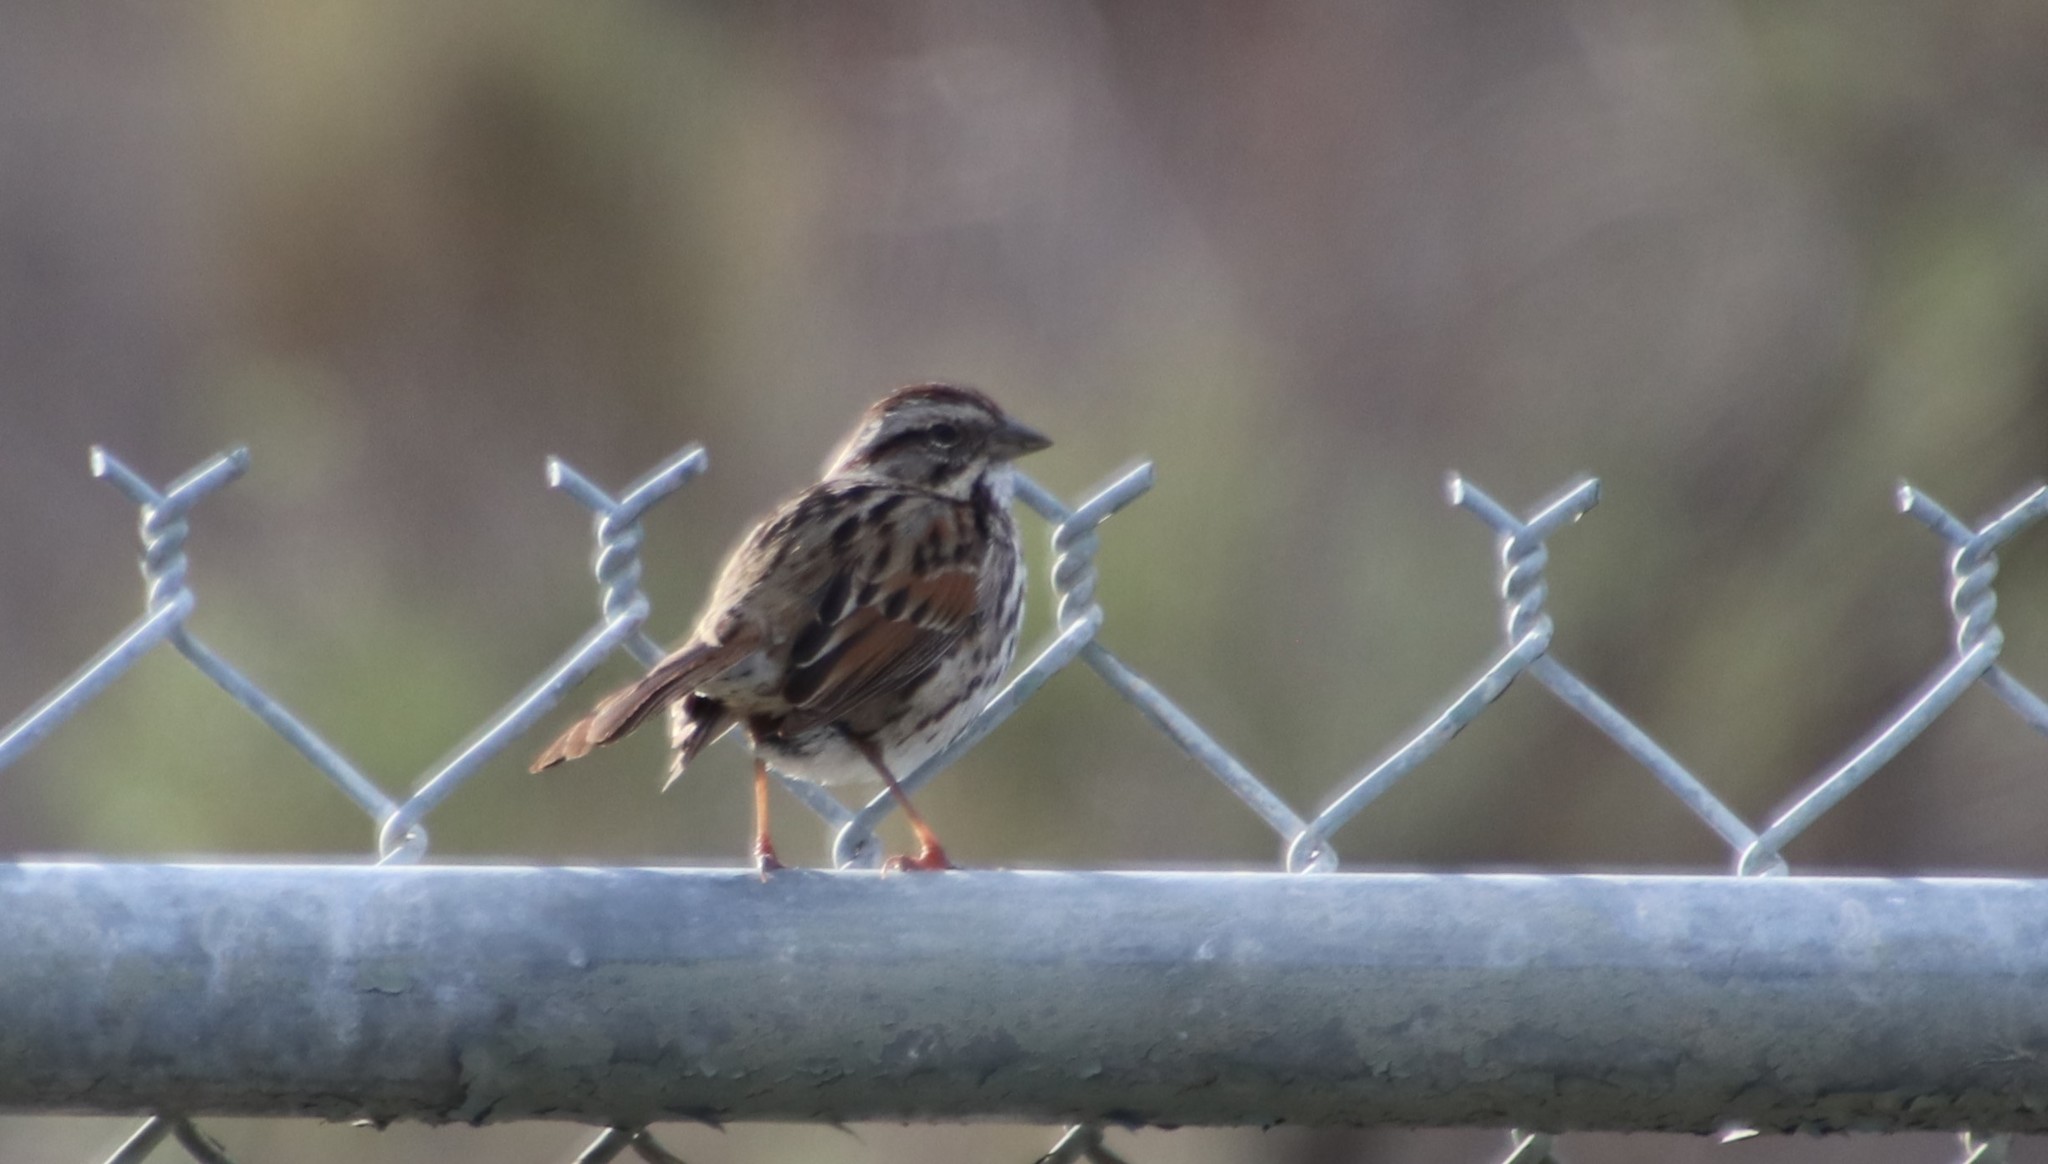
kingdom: Animalia
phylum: Chordata
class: Aves
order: Passeriformes
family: Passerellidae
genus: Melospiza
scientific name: Melospiza melodia
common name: Song sparrow
